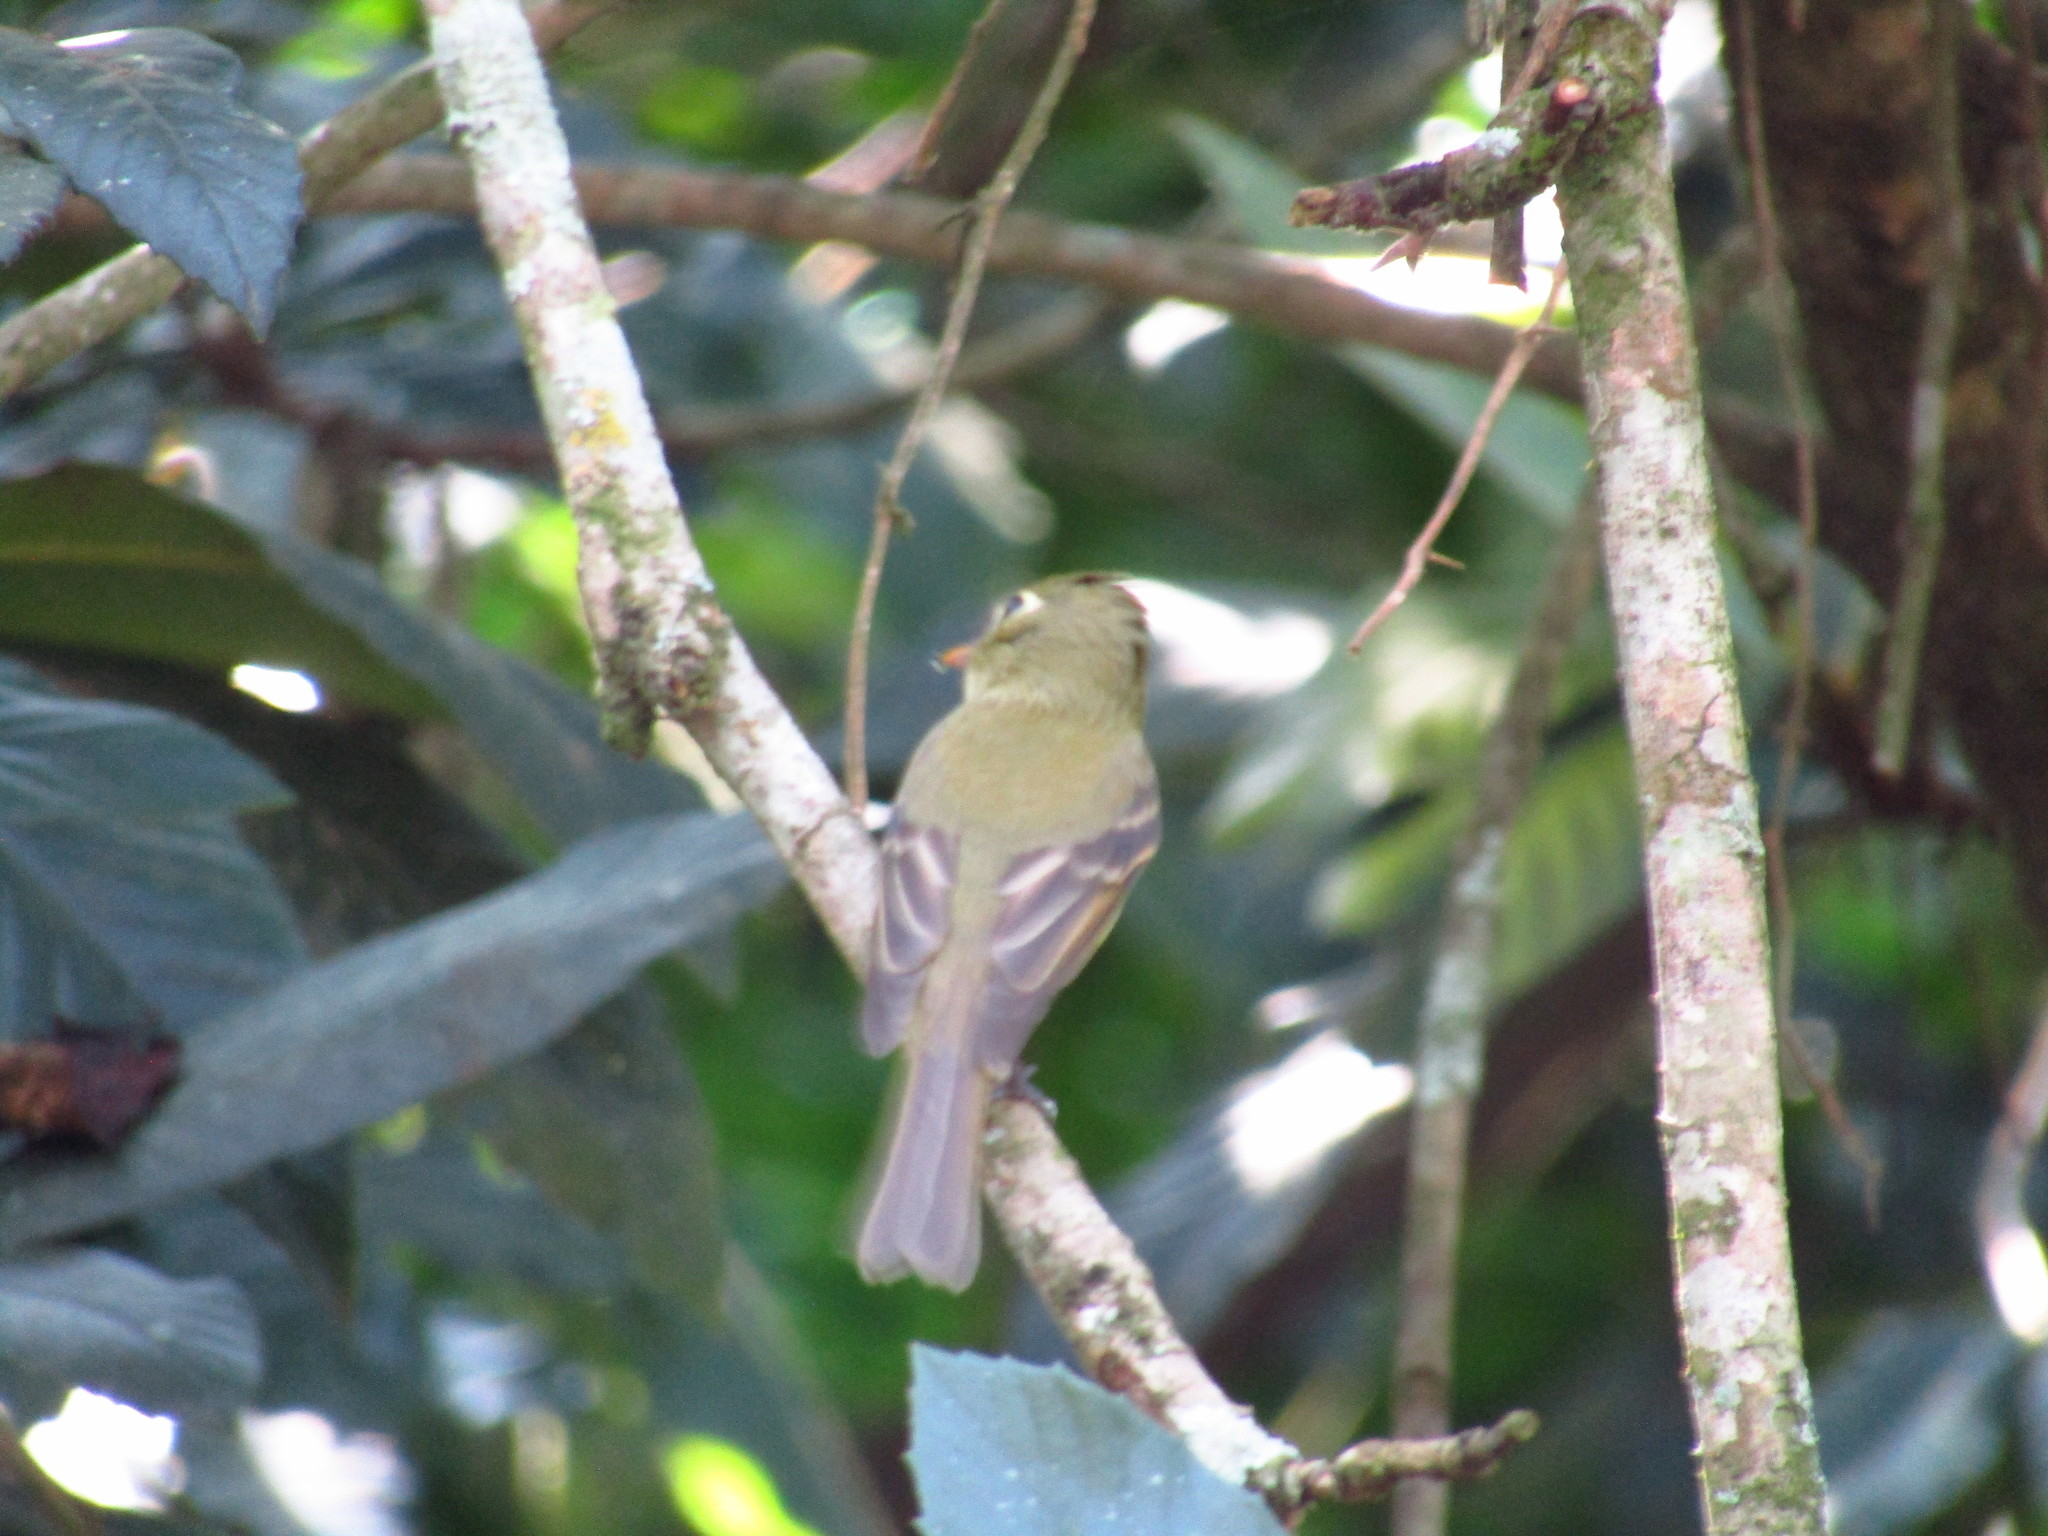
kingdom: Animalia
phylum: Chordata
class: Aves
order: Passeriformes
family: Tyrannidae
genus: Empidonax
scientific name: Empidonax difficilis
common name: Pacific-slope flycatcher
